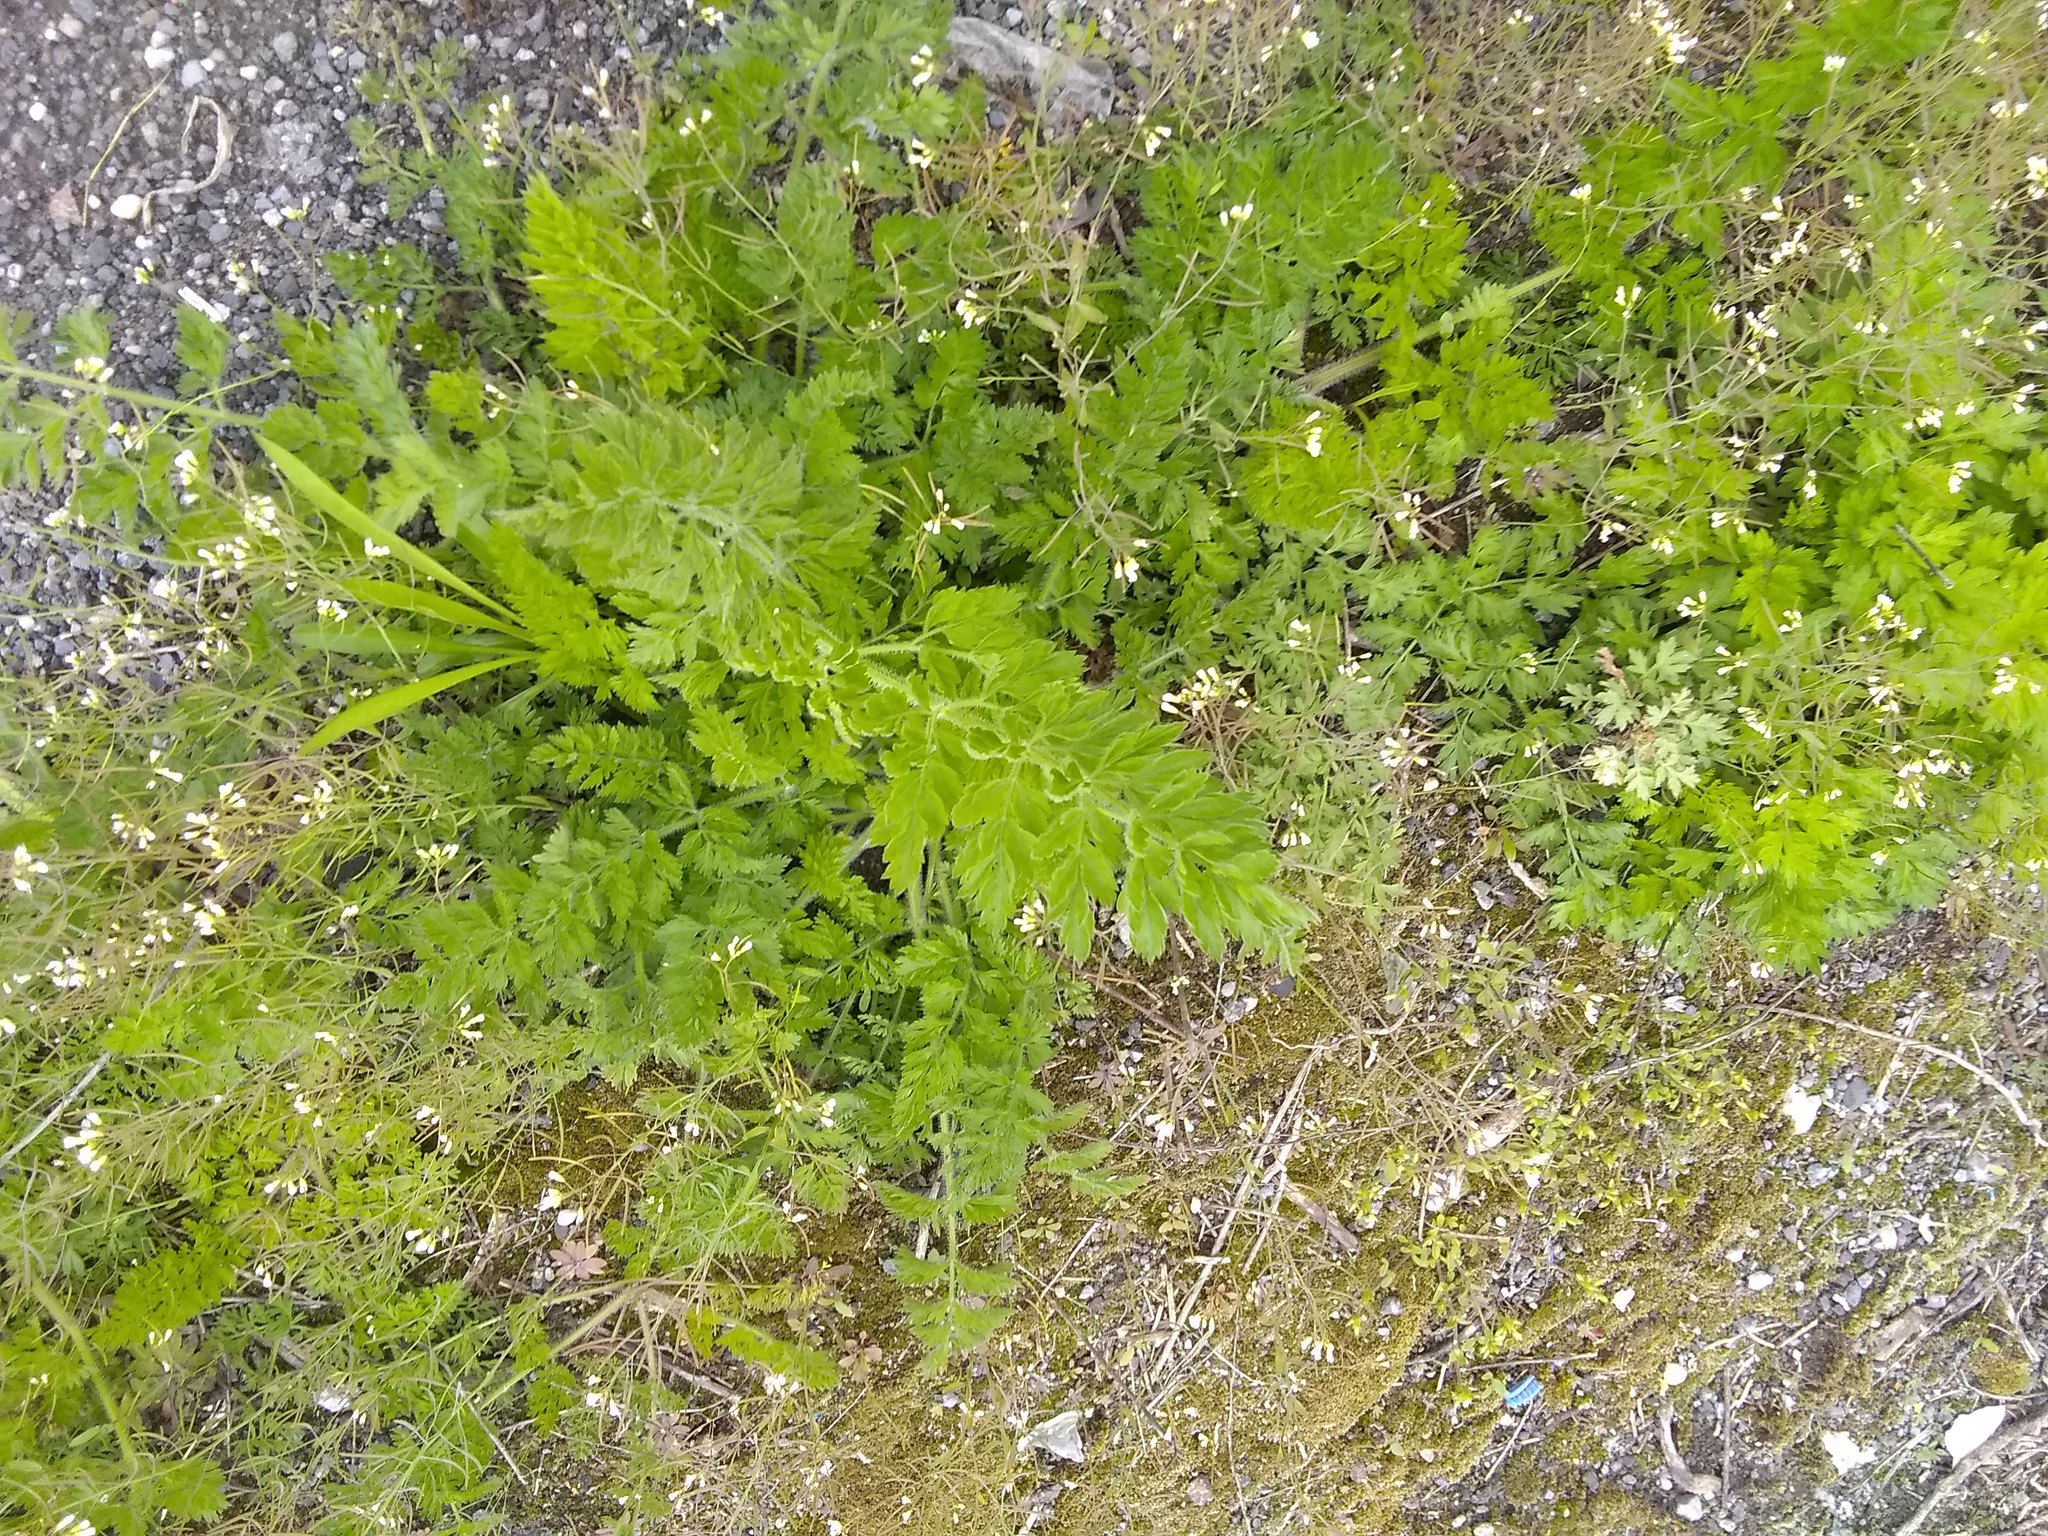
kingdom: Plantae
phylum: Tracheophyta
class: Magnoliopsida
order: Apiales
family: Apiaceae
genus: Daucus
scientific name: Daucus carota
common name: Wild carrot
